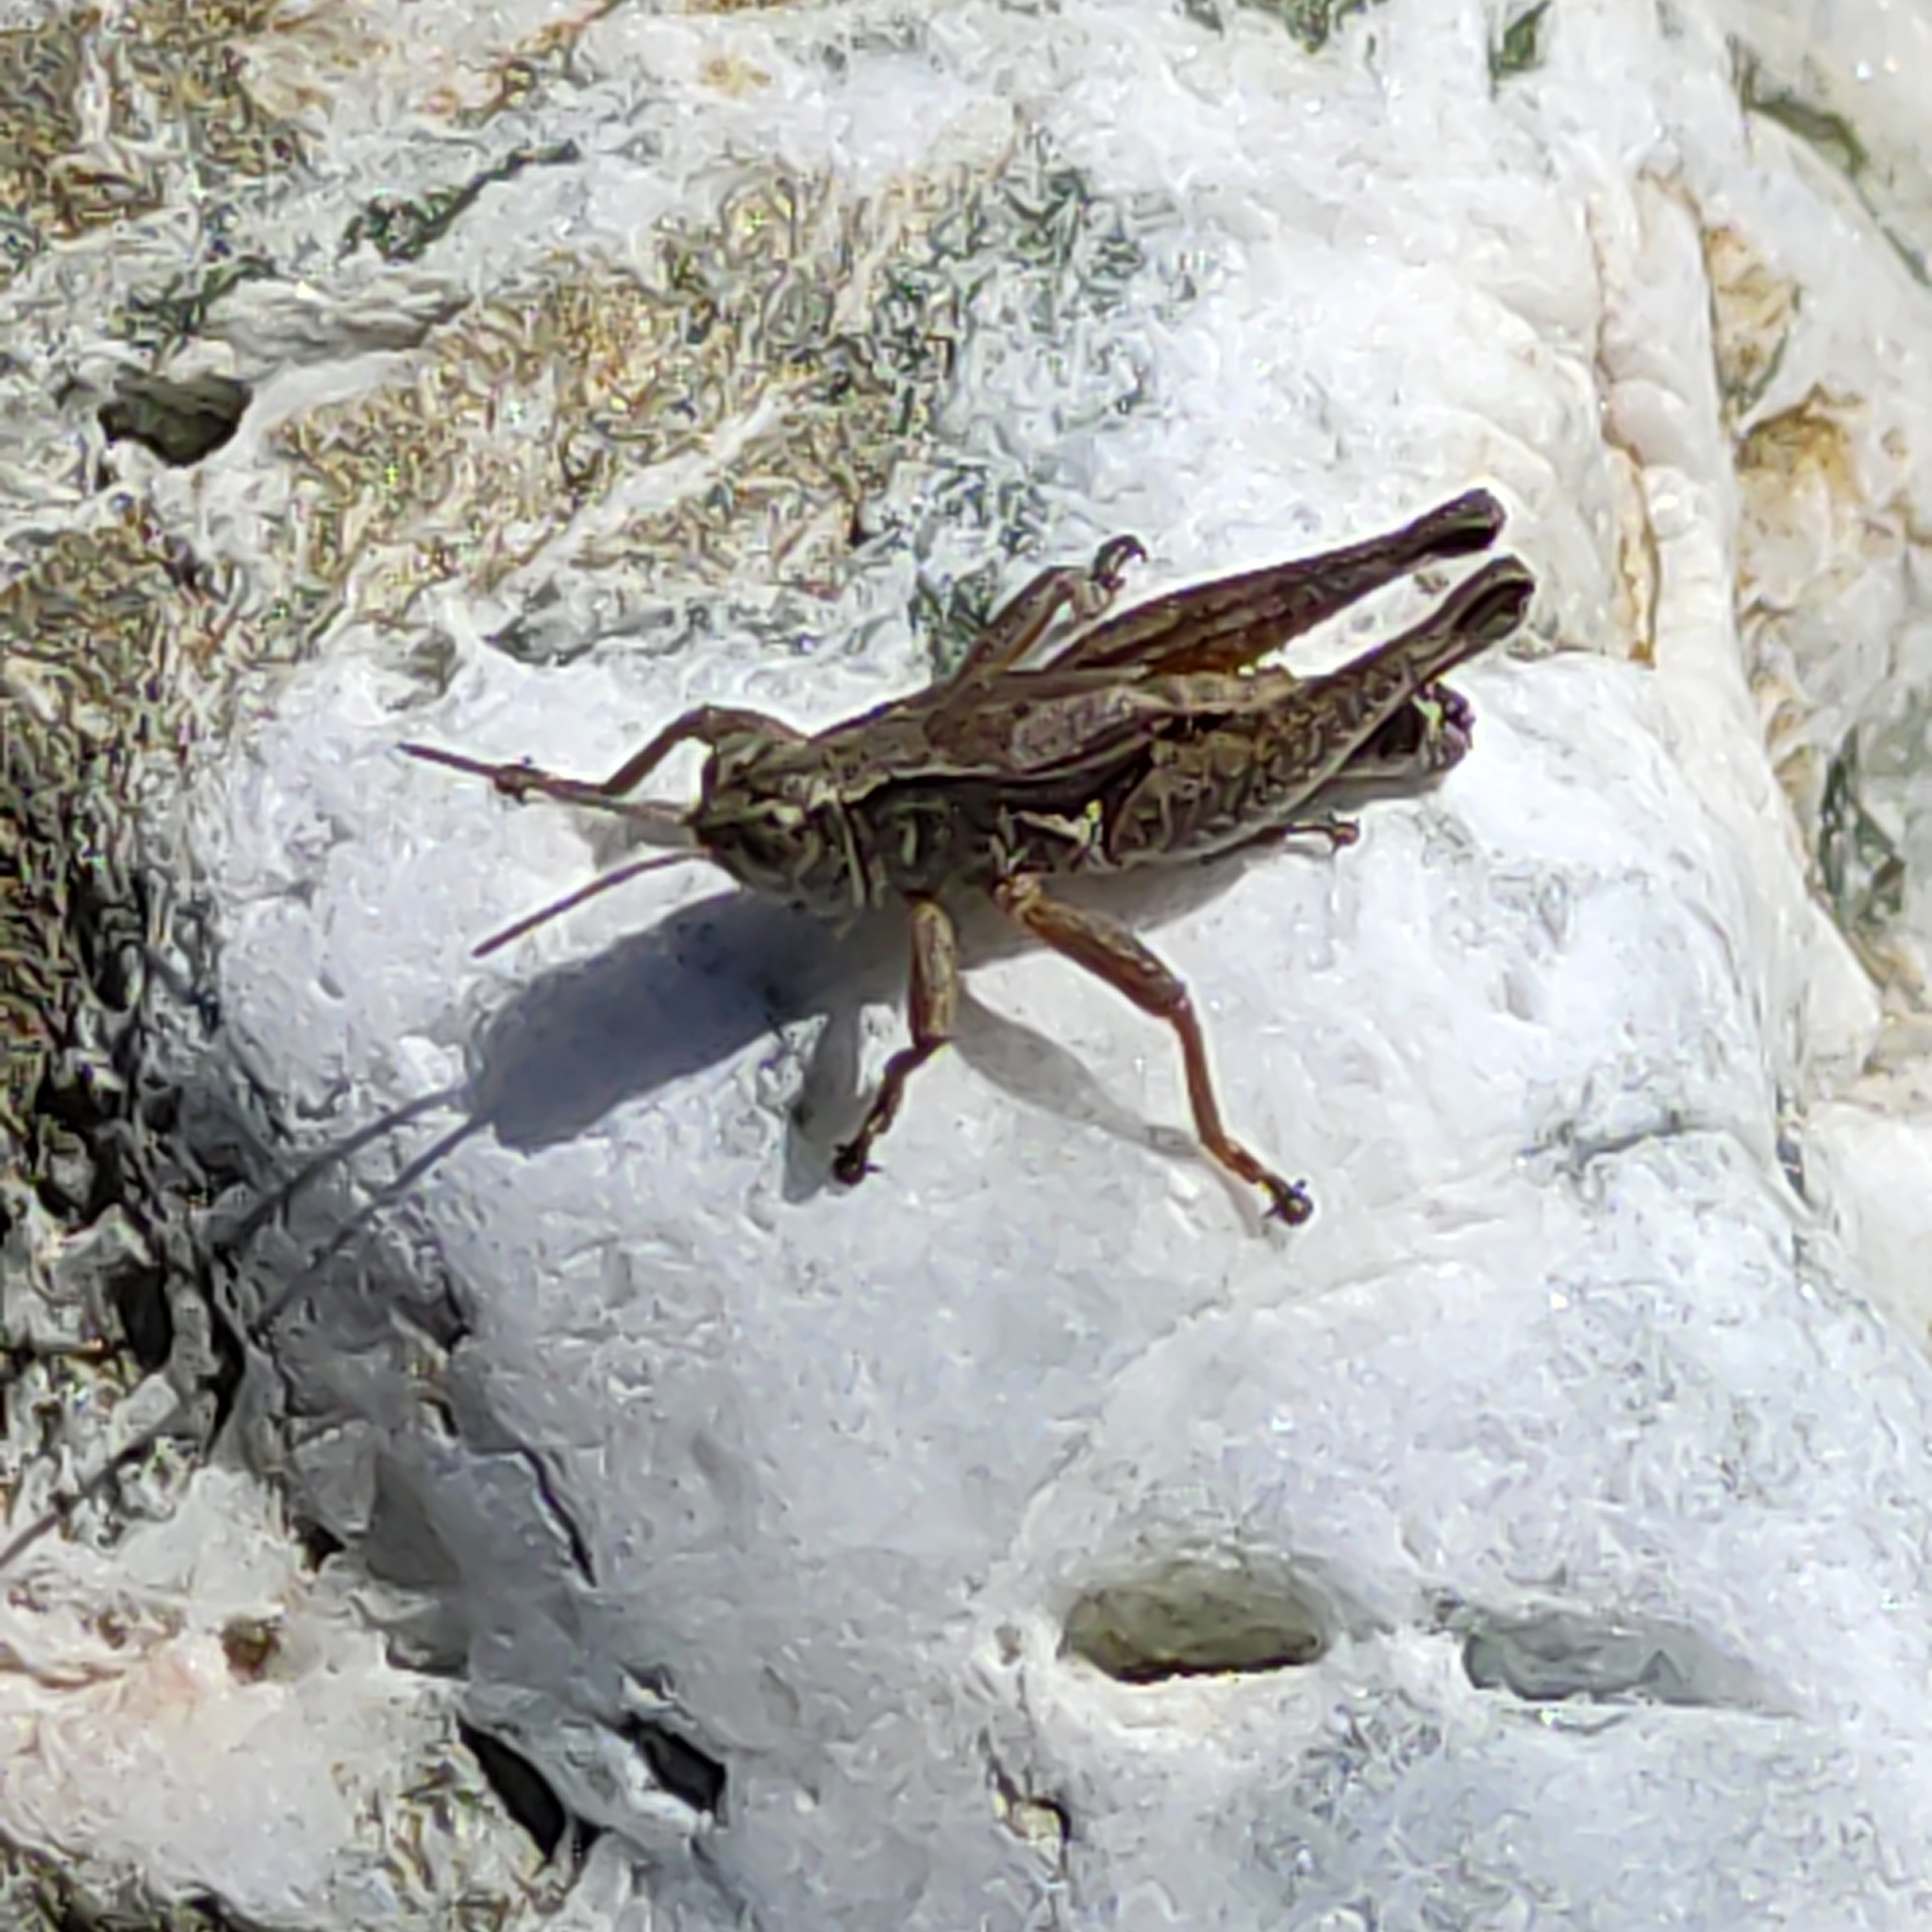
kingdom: Animalia
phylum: Arthropoda
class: Insecta
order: Orthoptera
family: Acrididae
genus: Phaulacridium
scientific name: Phaulacridium marginale
